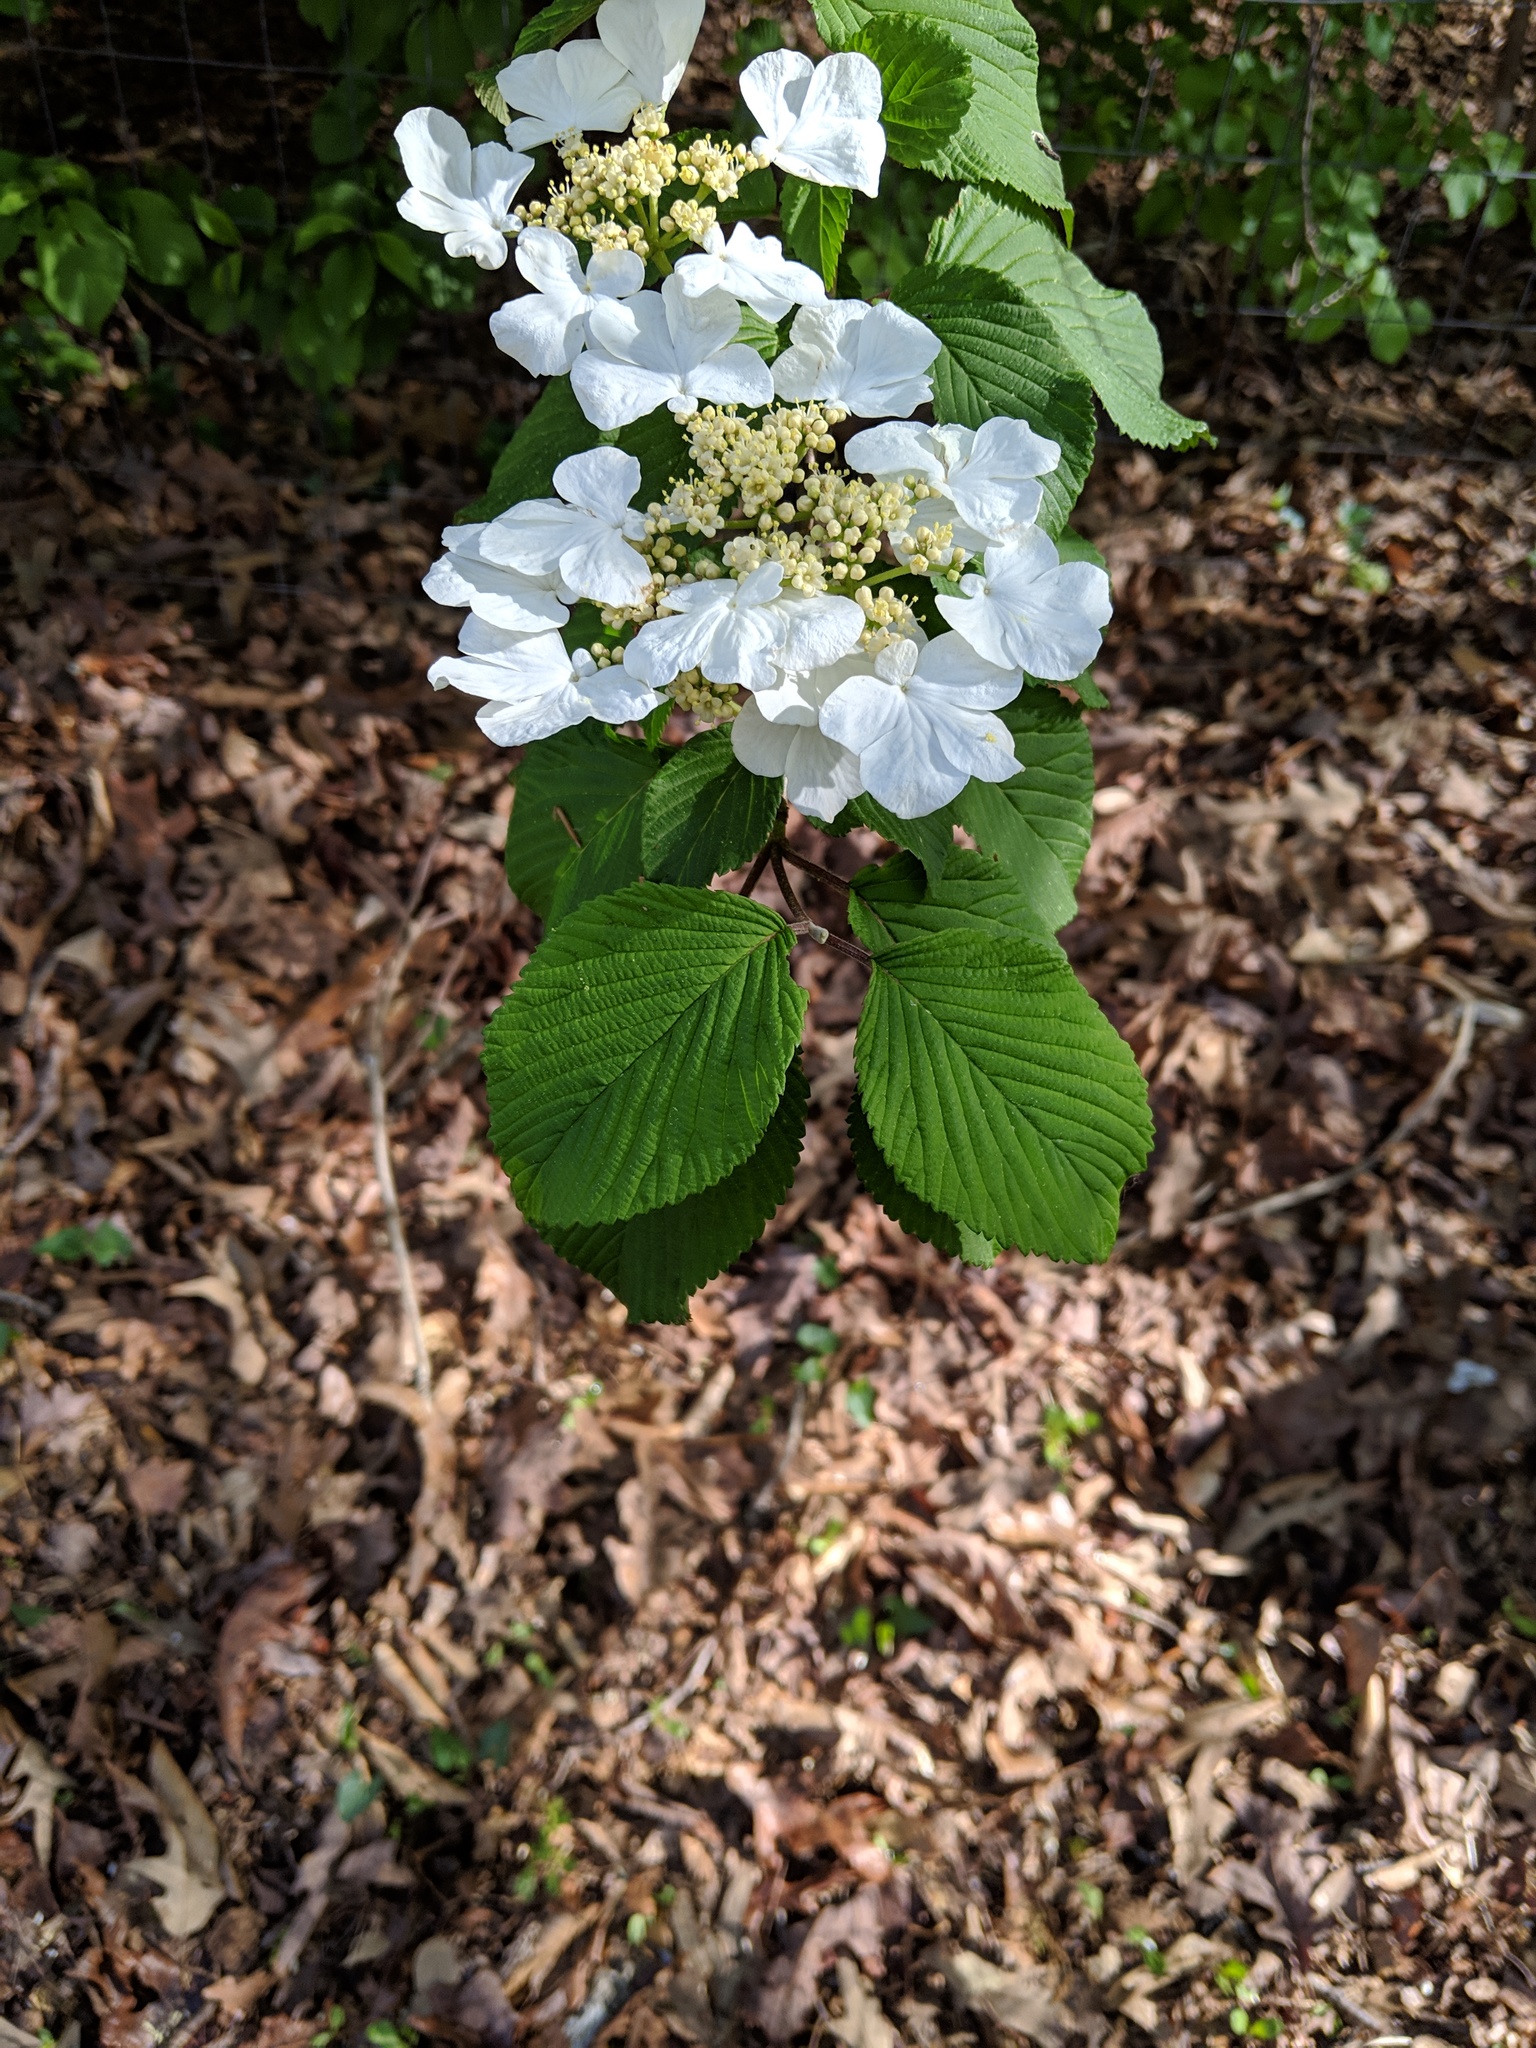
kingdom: Plantae
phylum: Tracheophyta
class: Magnoliopsida
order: Dipsacales
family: Viburnaceae
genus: Viburnum
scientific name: Viburnum plicatum
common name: Japanese snowball
